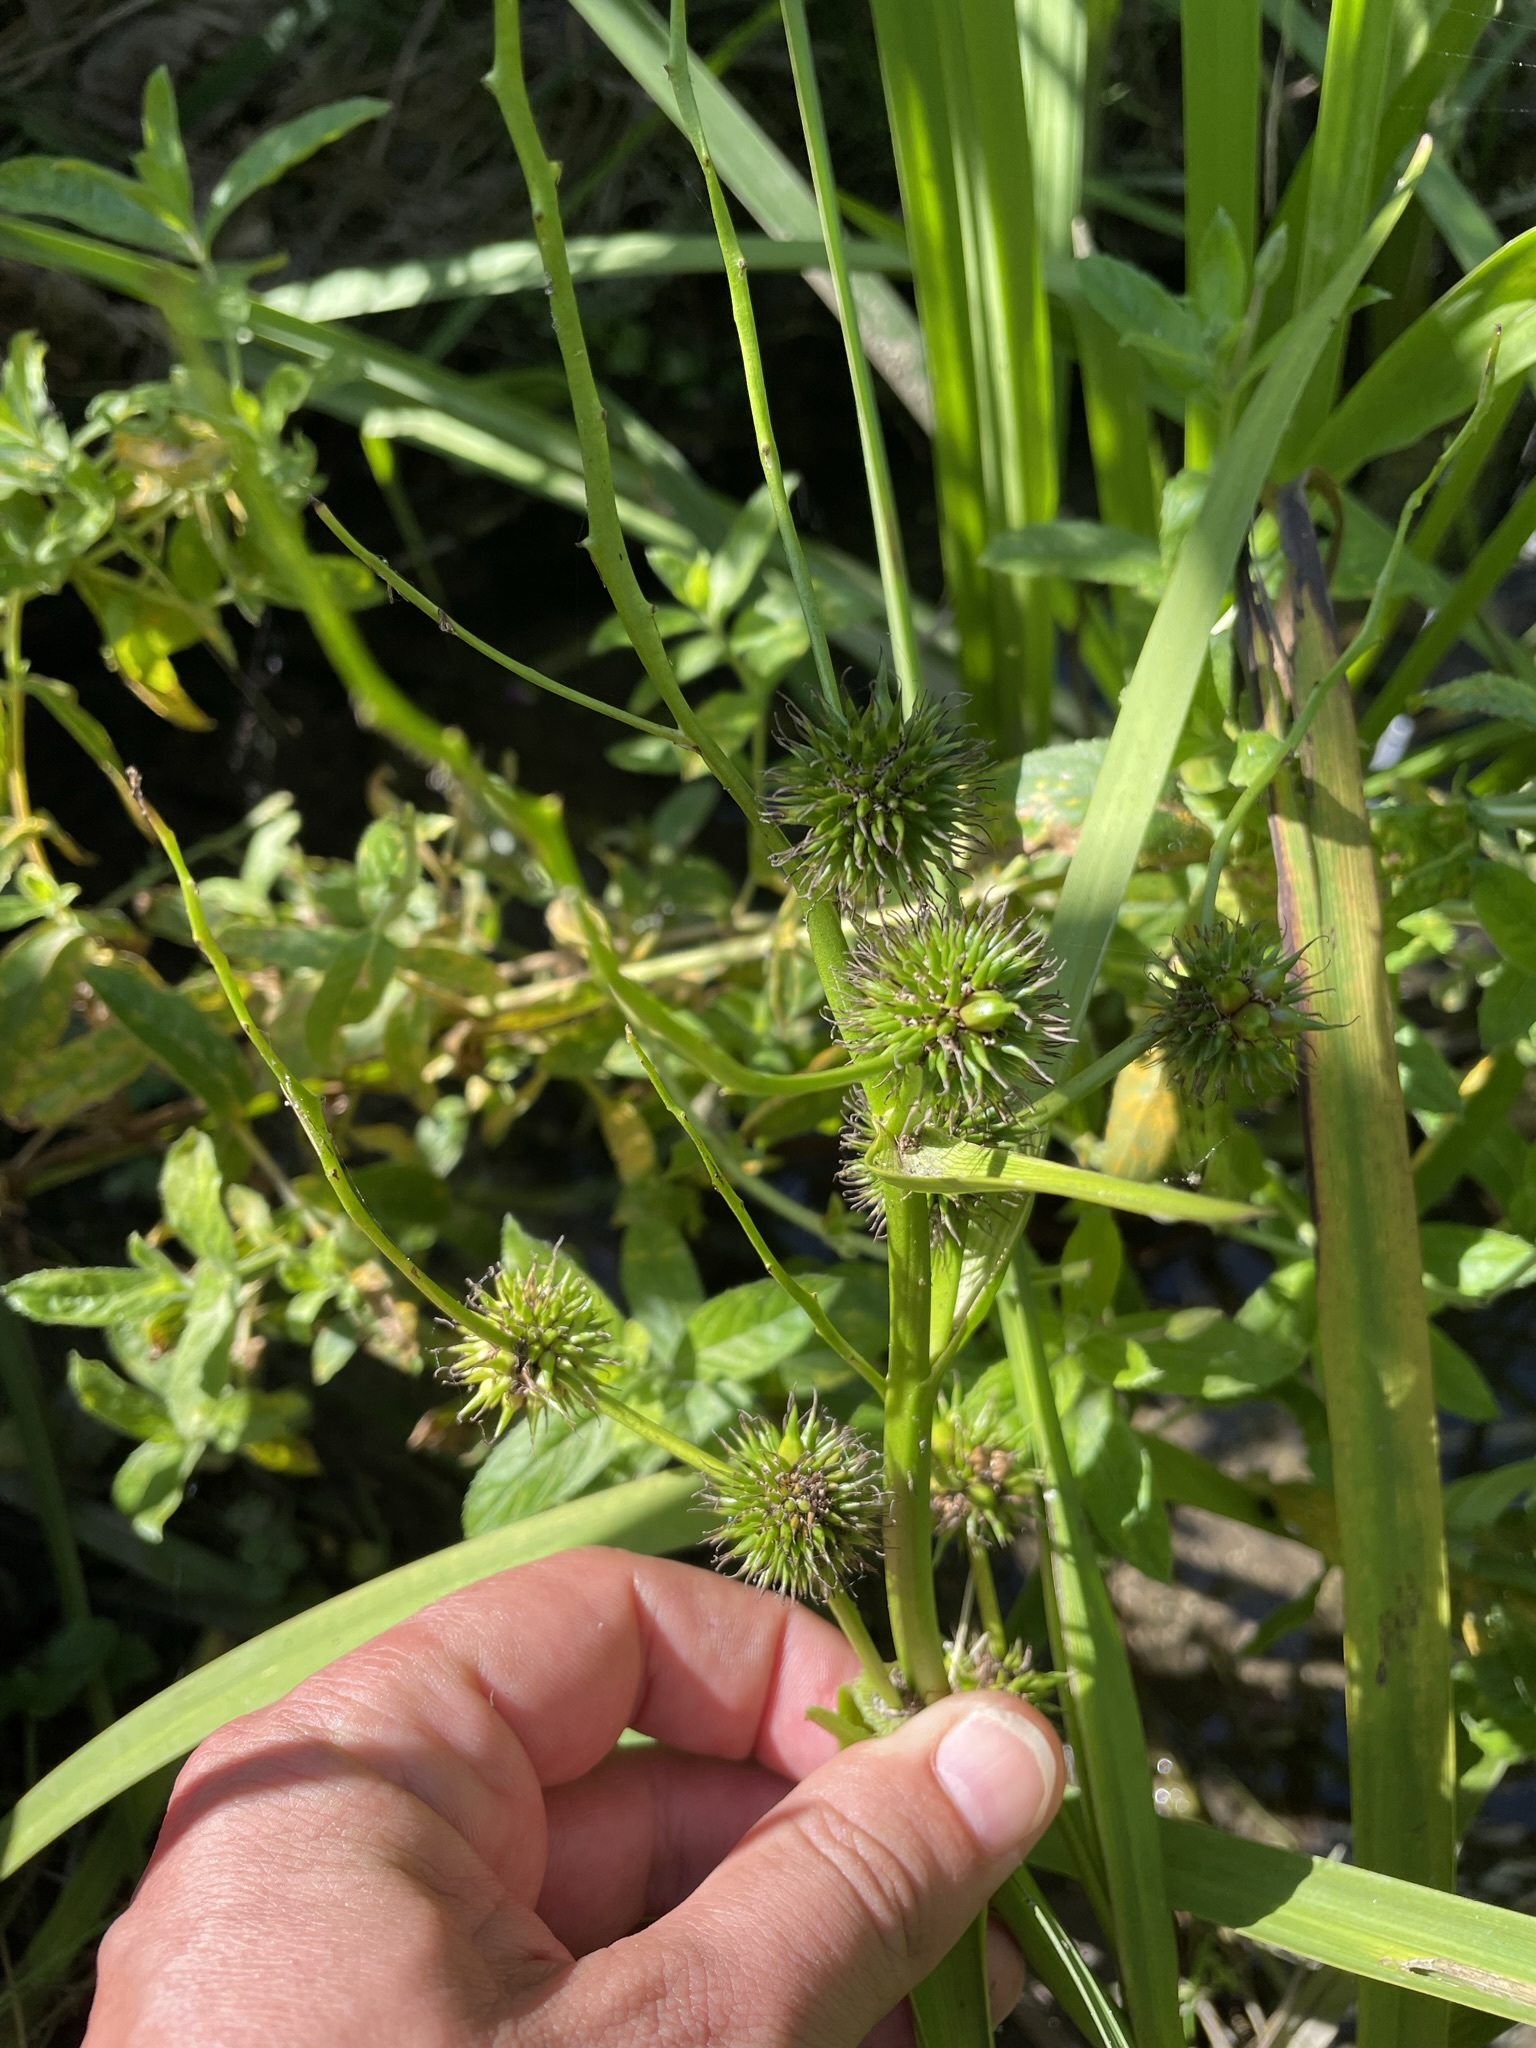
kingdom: Plantae
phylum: Tracheophyta
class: Liliopsida
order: Poales
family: Typhaceae
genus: Sparganium
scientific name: Sparganium erectum
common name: Branched bur-reed
